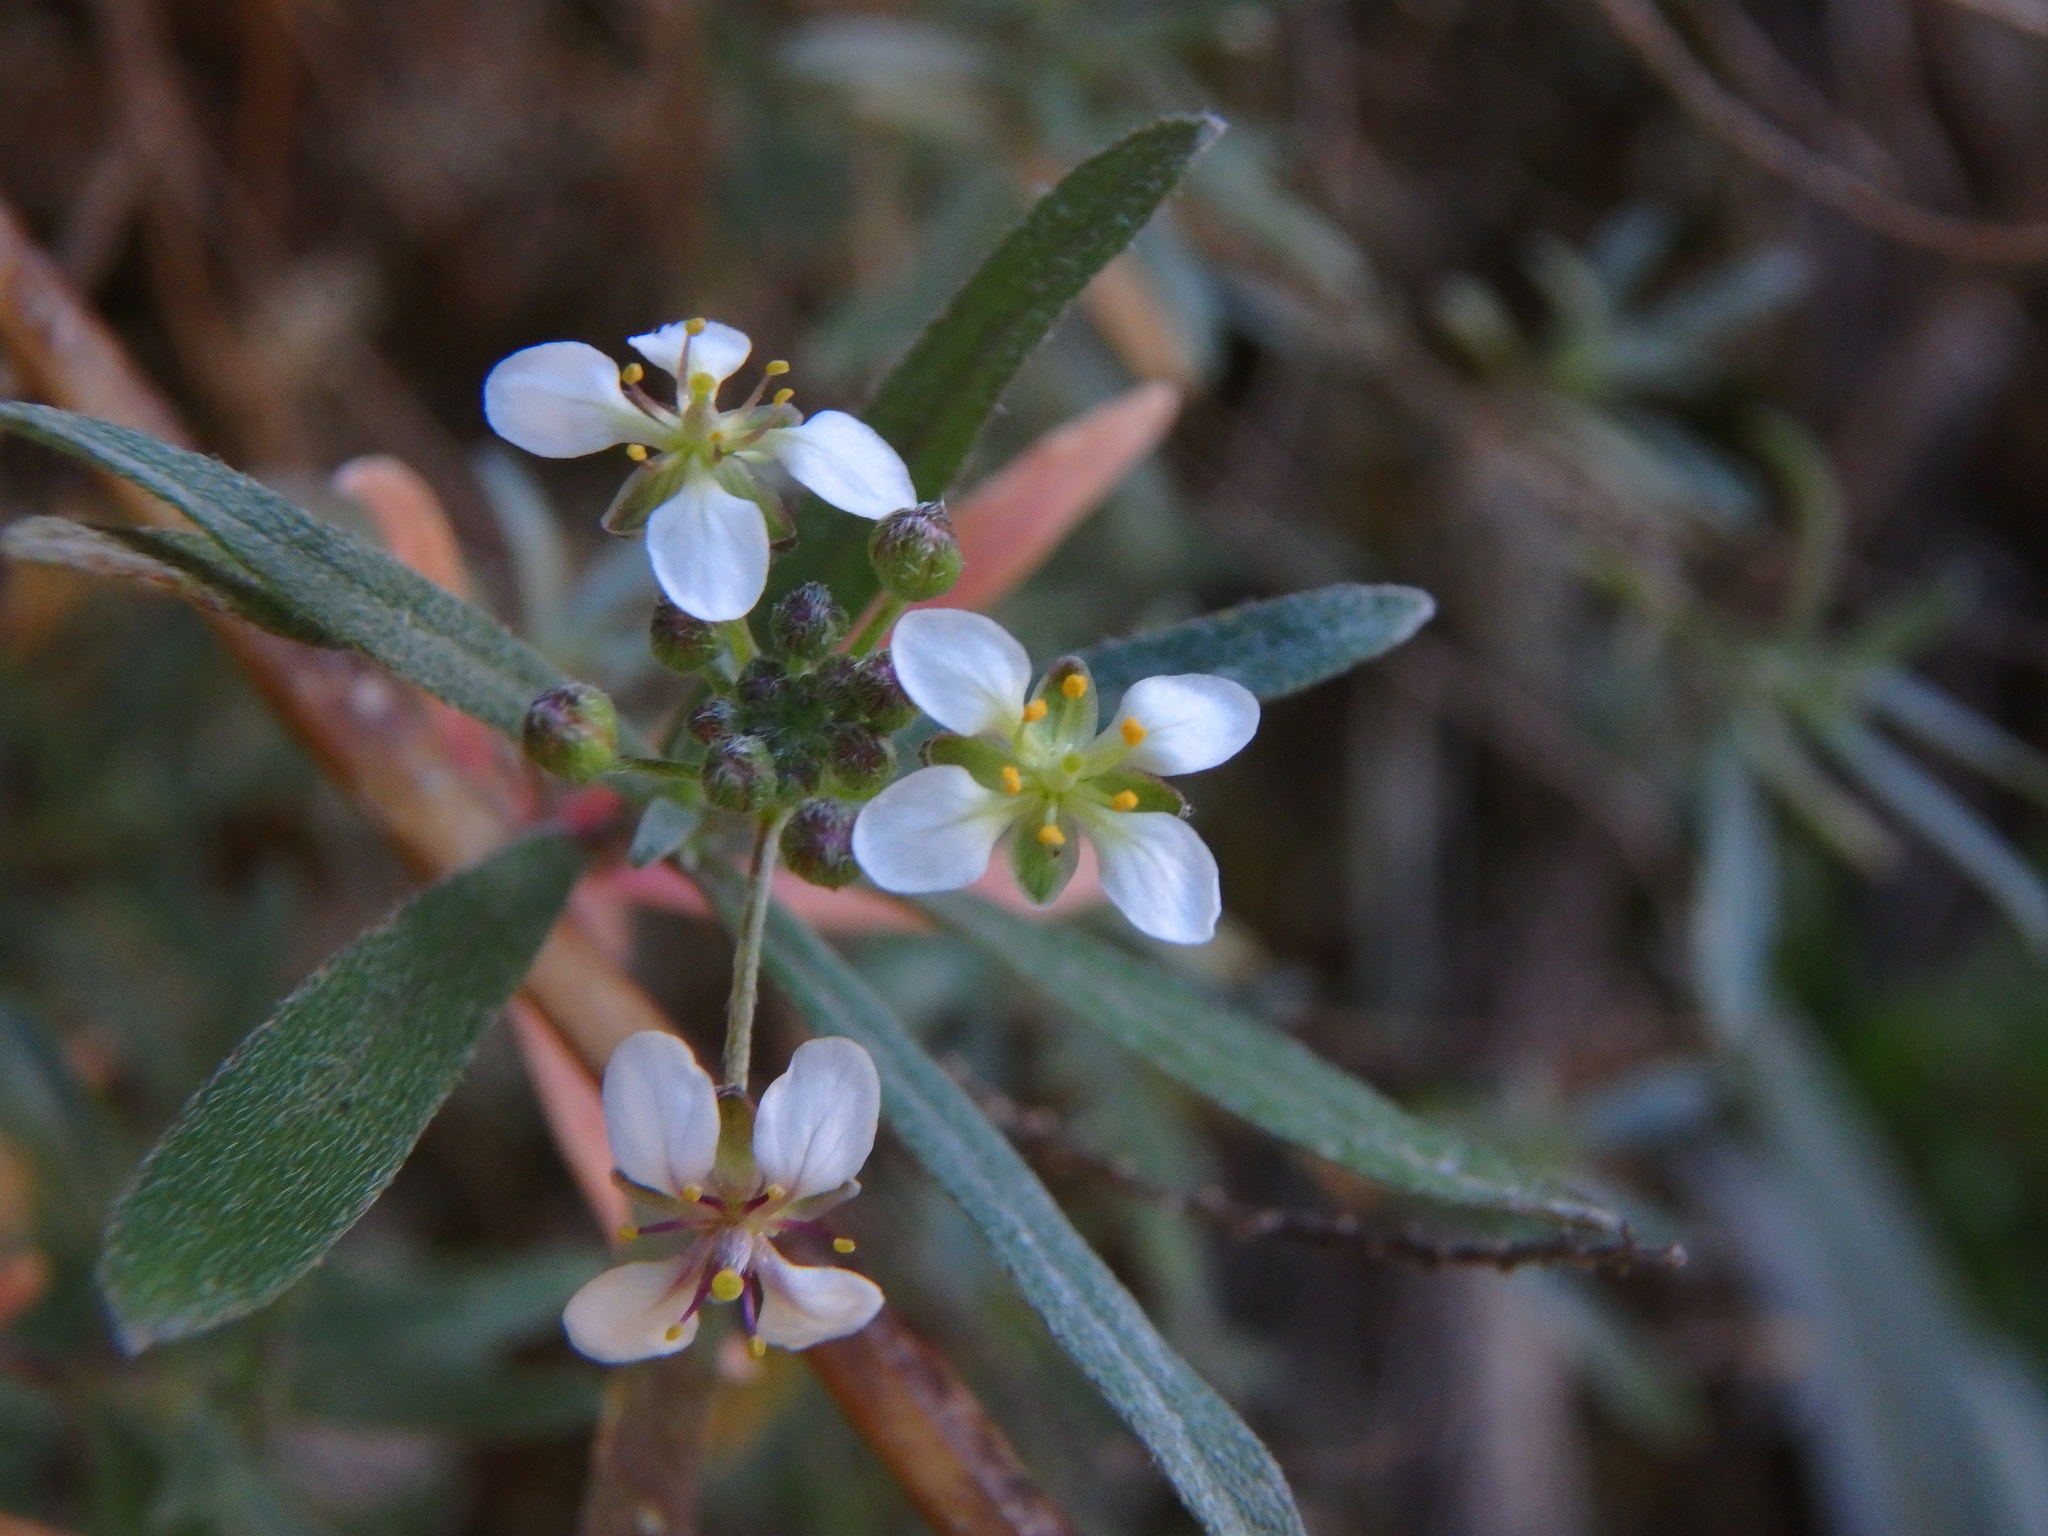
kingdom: Plantae
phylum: Tracheophyta
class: Magnoliopsida
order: Brassicales
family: Brassicaceae
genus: Lobularia
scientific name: Lobularia canariensis
